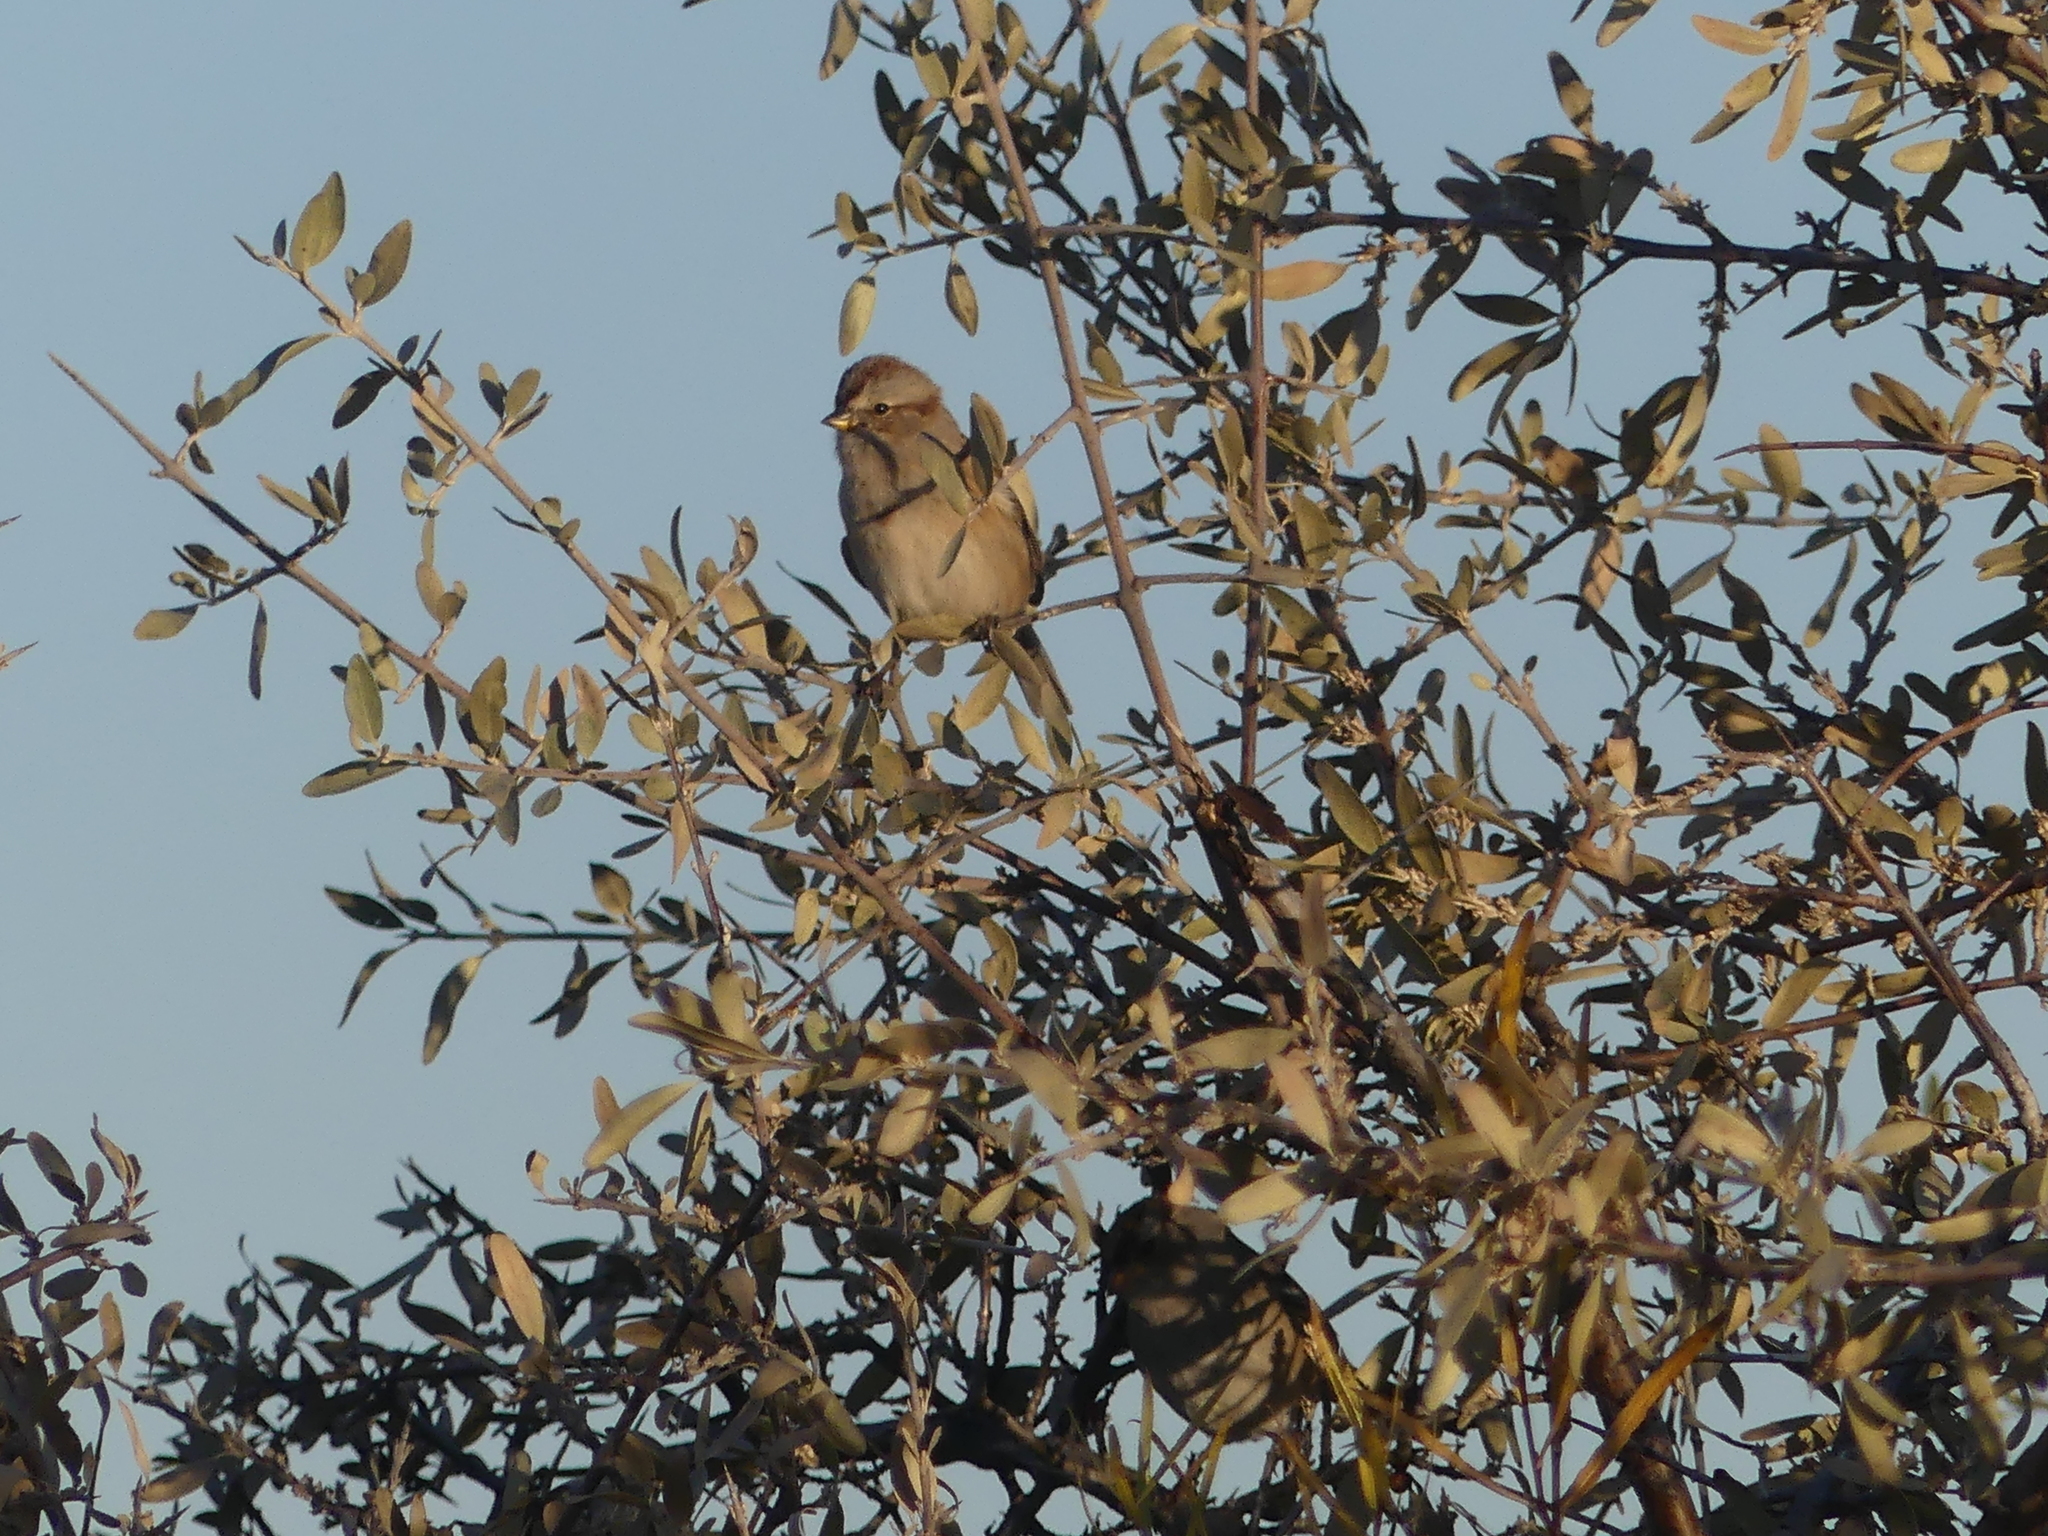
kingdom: Animalia
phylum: Chordata
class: Aves
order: Passeriformes
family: Passerellidae
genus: Spizelloides
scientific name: Spizelloides arborea
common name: American tree sparrow
